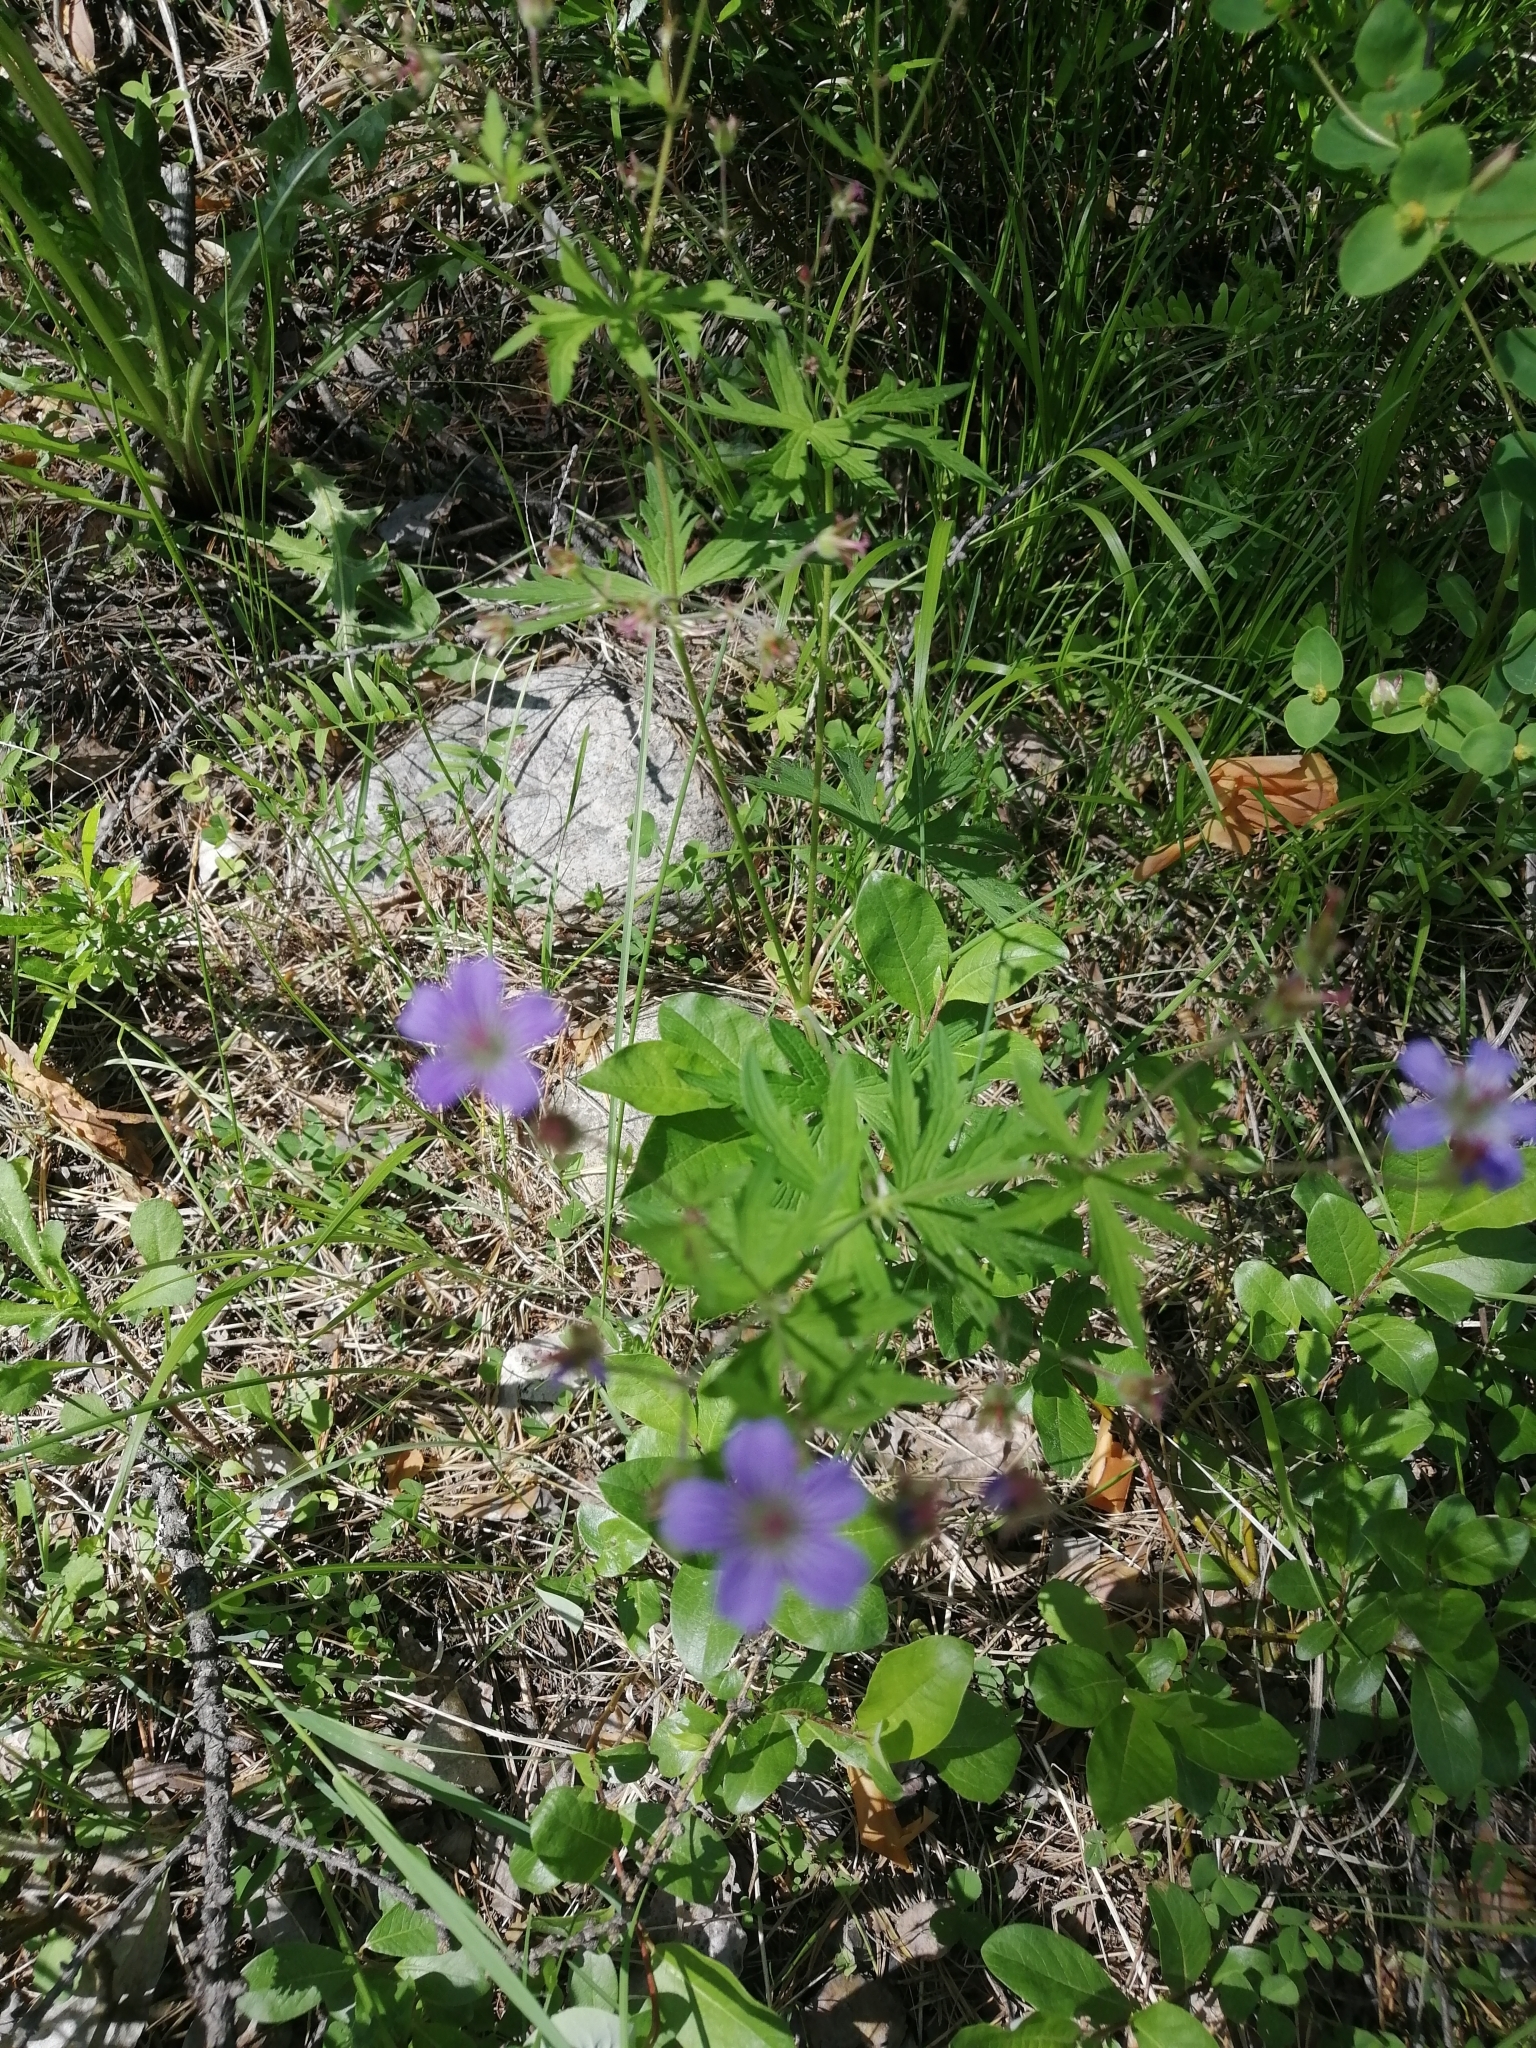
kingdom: Plantae
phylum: Tracheophyta
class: Magnoliopsida
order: Geraniales
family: Geraniaceae
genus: Geranium
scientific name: Geranium pseudosibiricum
